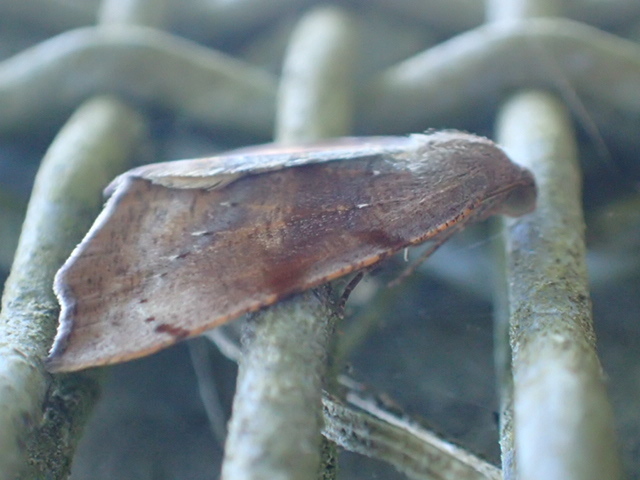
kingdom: Animalia
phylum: Arthropoda
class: Insecta
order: Lepidoptera
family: Geometridae
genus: Sestra
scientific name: Sestra flexata
